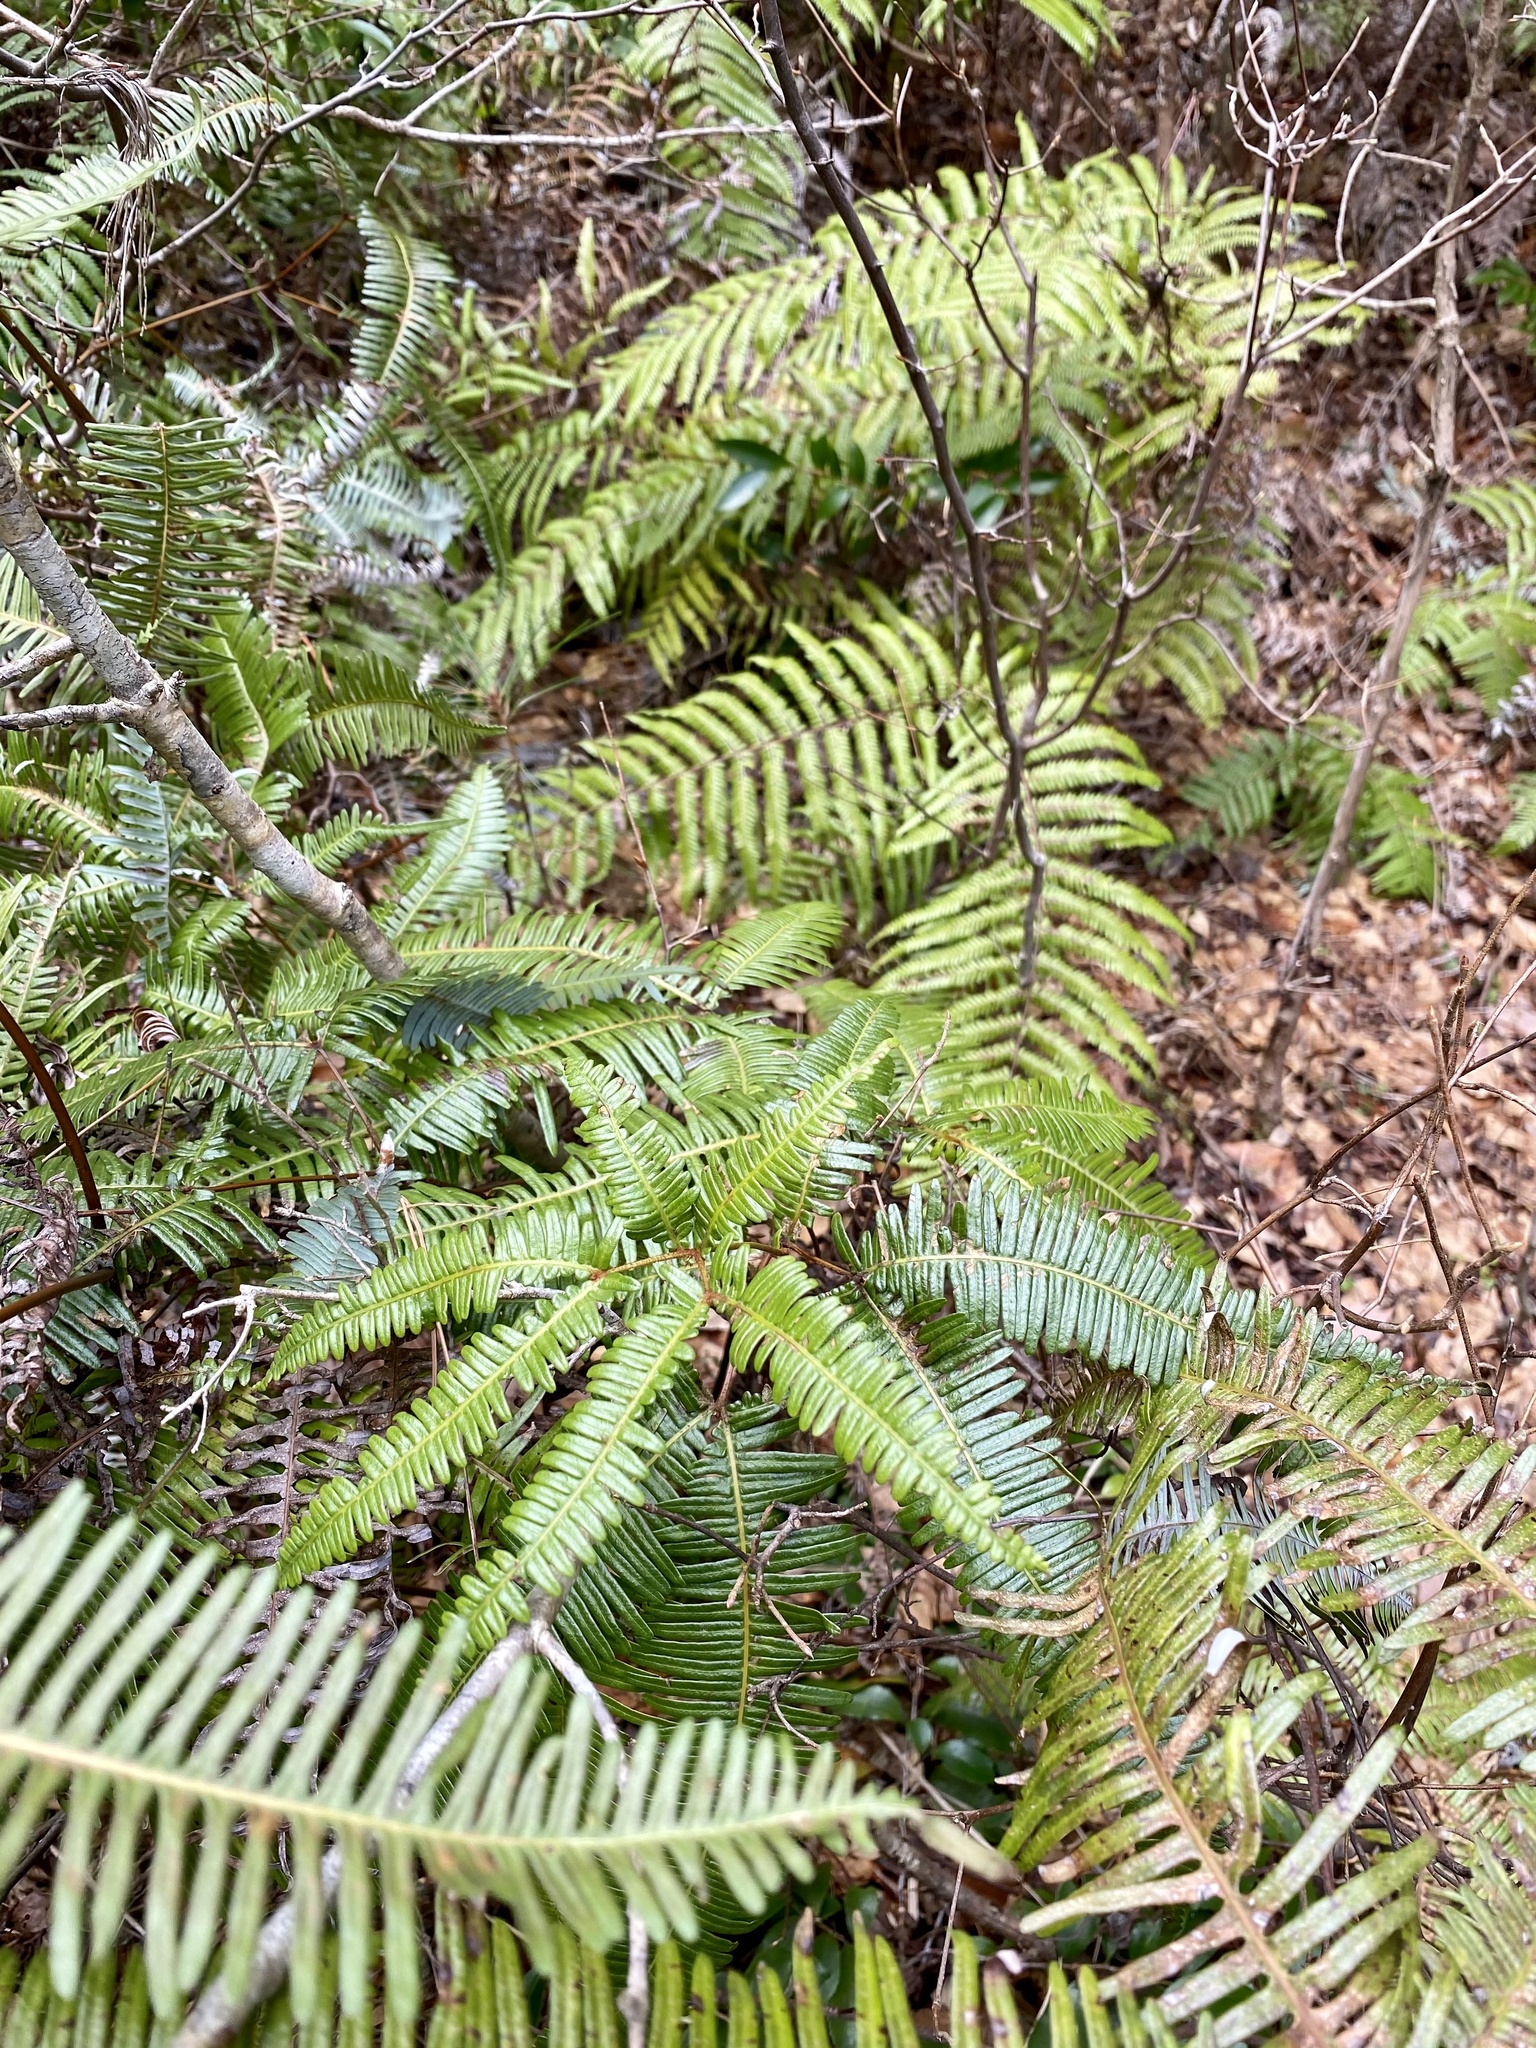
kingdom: Plantae
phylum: Tracheophyta
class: Polypodiopsida
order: Gleicheniales
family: Gleicheniaceae
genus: Dicranopteris
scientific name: Dicranopteris pedata
